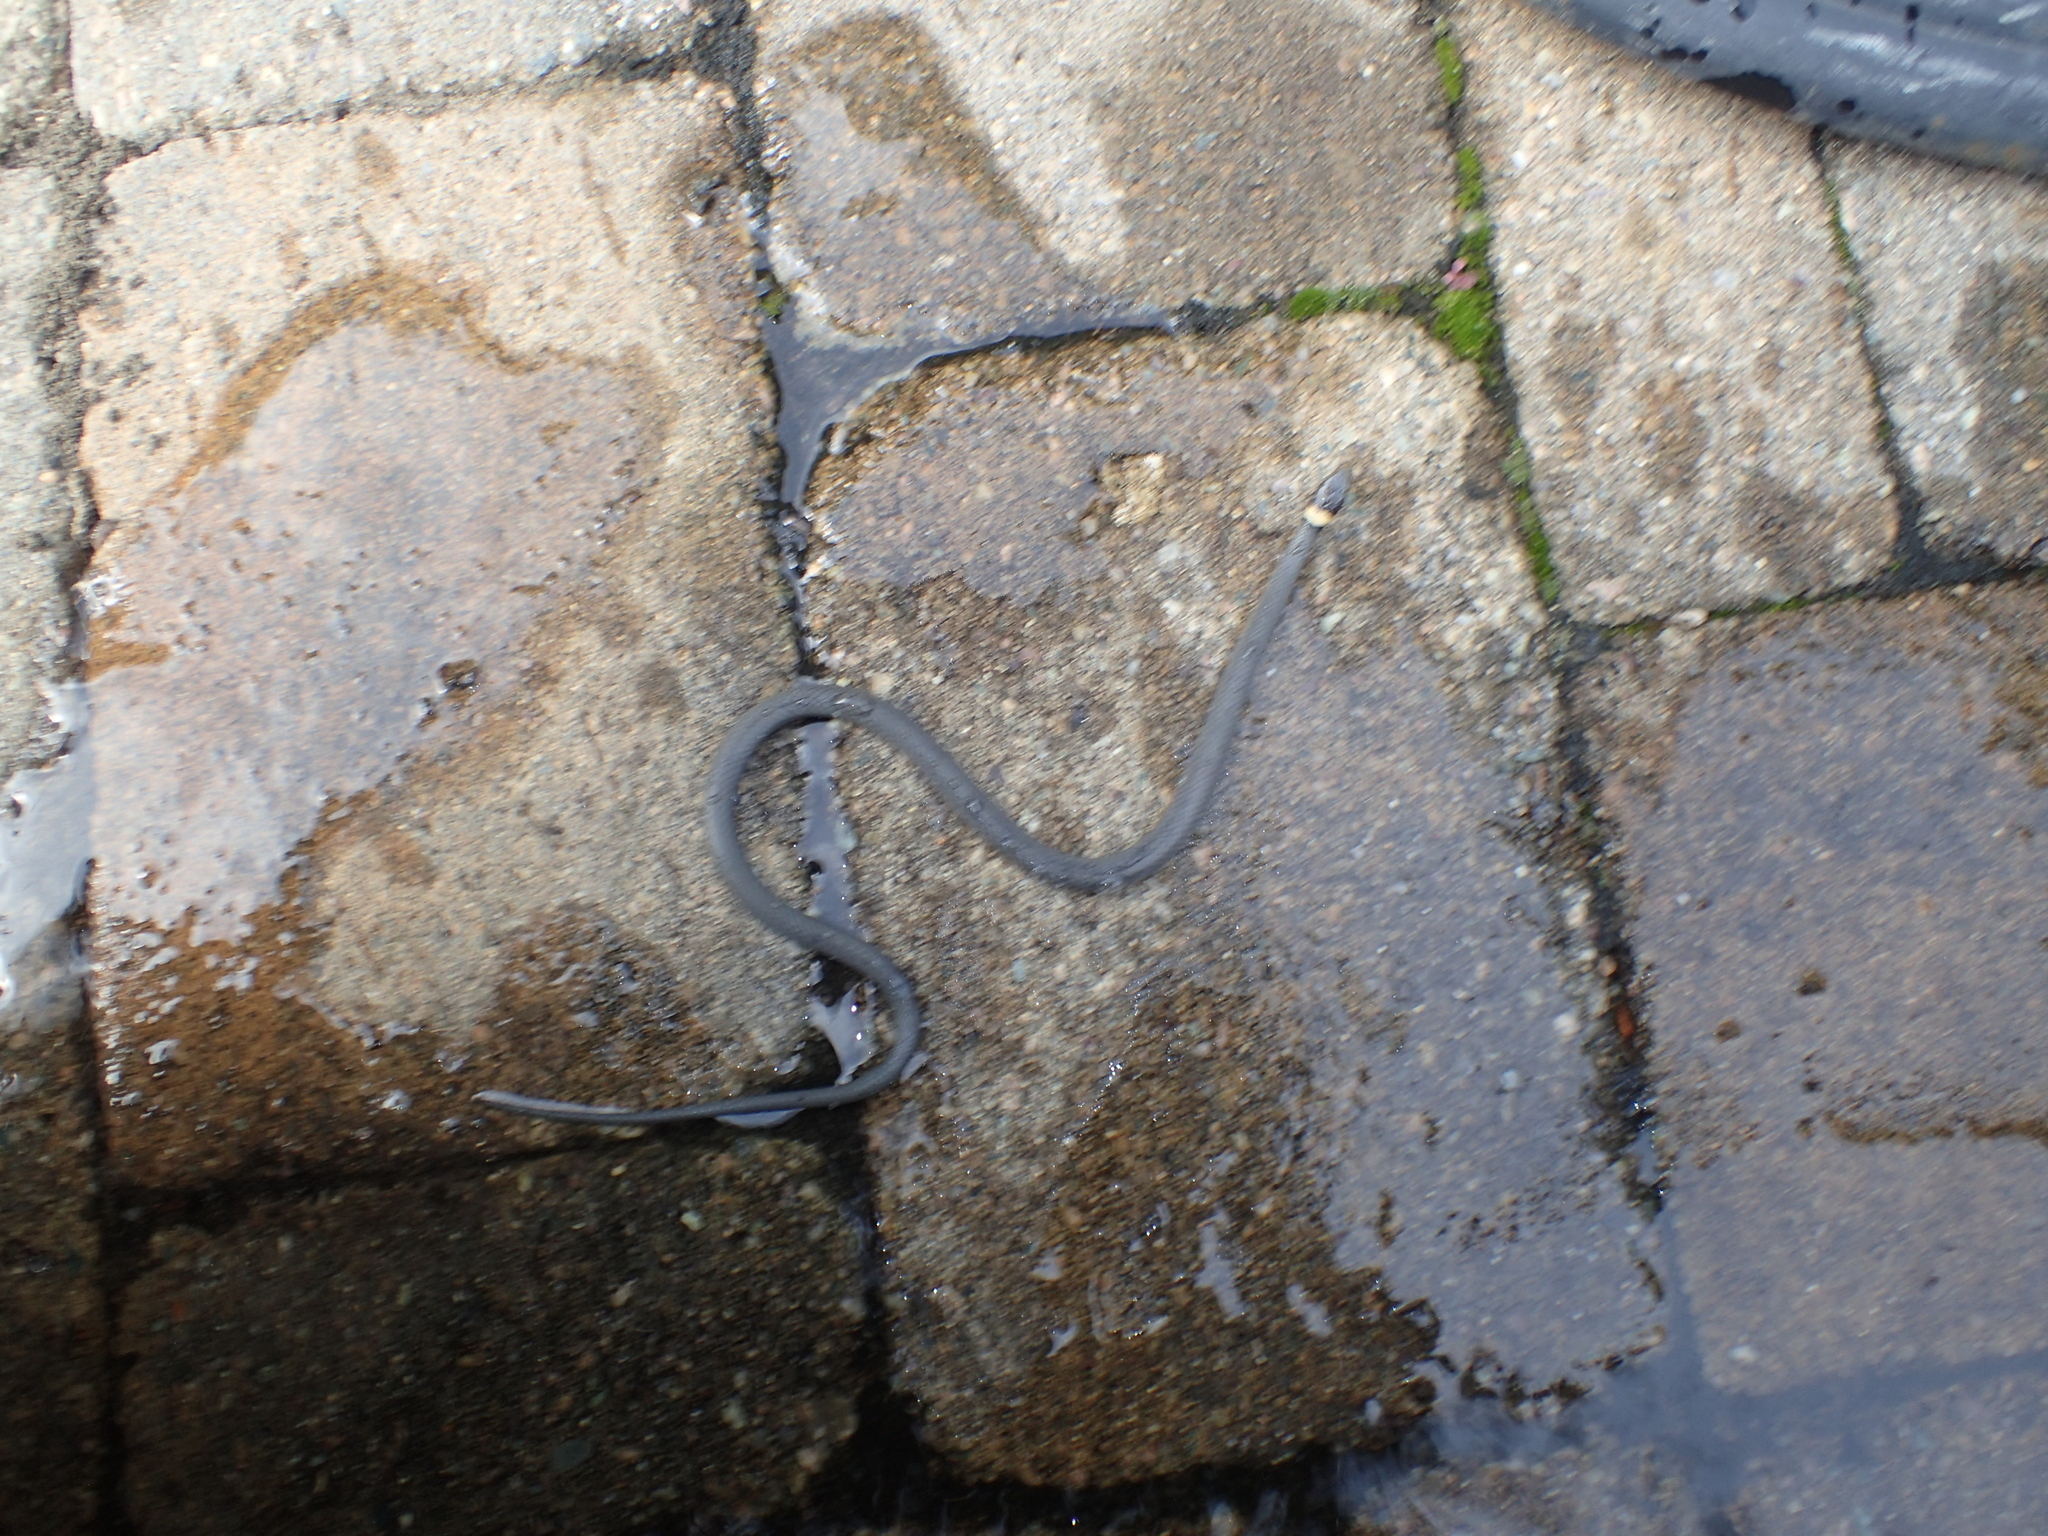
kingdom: Animalia
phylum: Chordata
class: Squamata
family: Colubridae
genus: Diadophis
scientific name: Diadophis punctatus
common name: Ringneck snake
